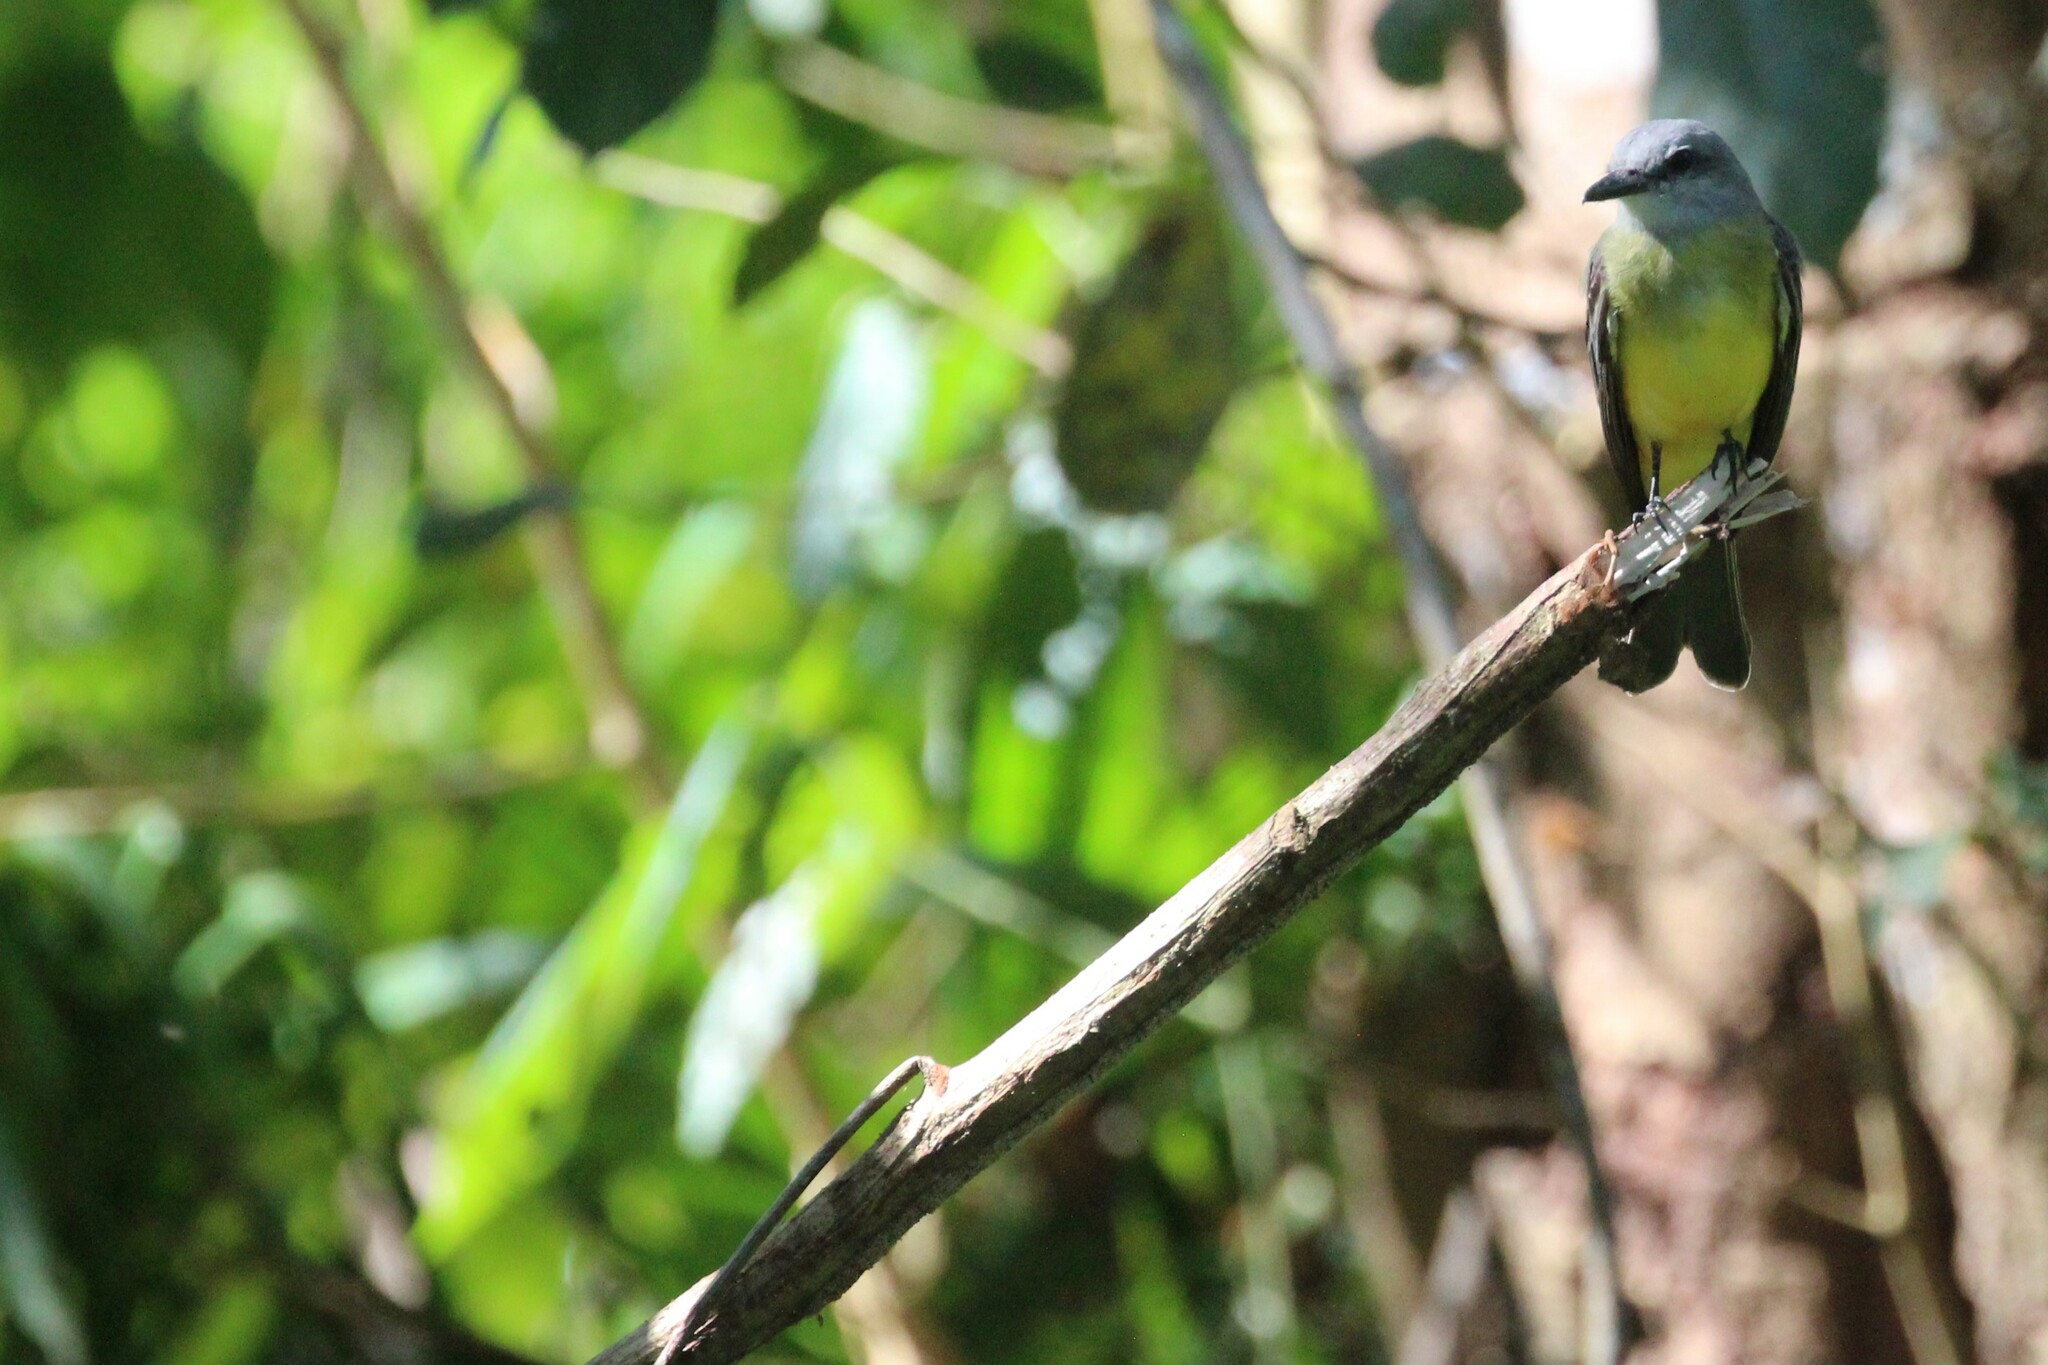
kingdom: Animalia
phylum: Chordata
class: Aves
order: Passeriformes
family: Tyrannidae
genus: Tyrannus
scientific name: Tyrannus melancholicus
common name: Tropical kingbird
